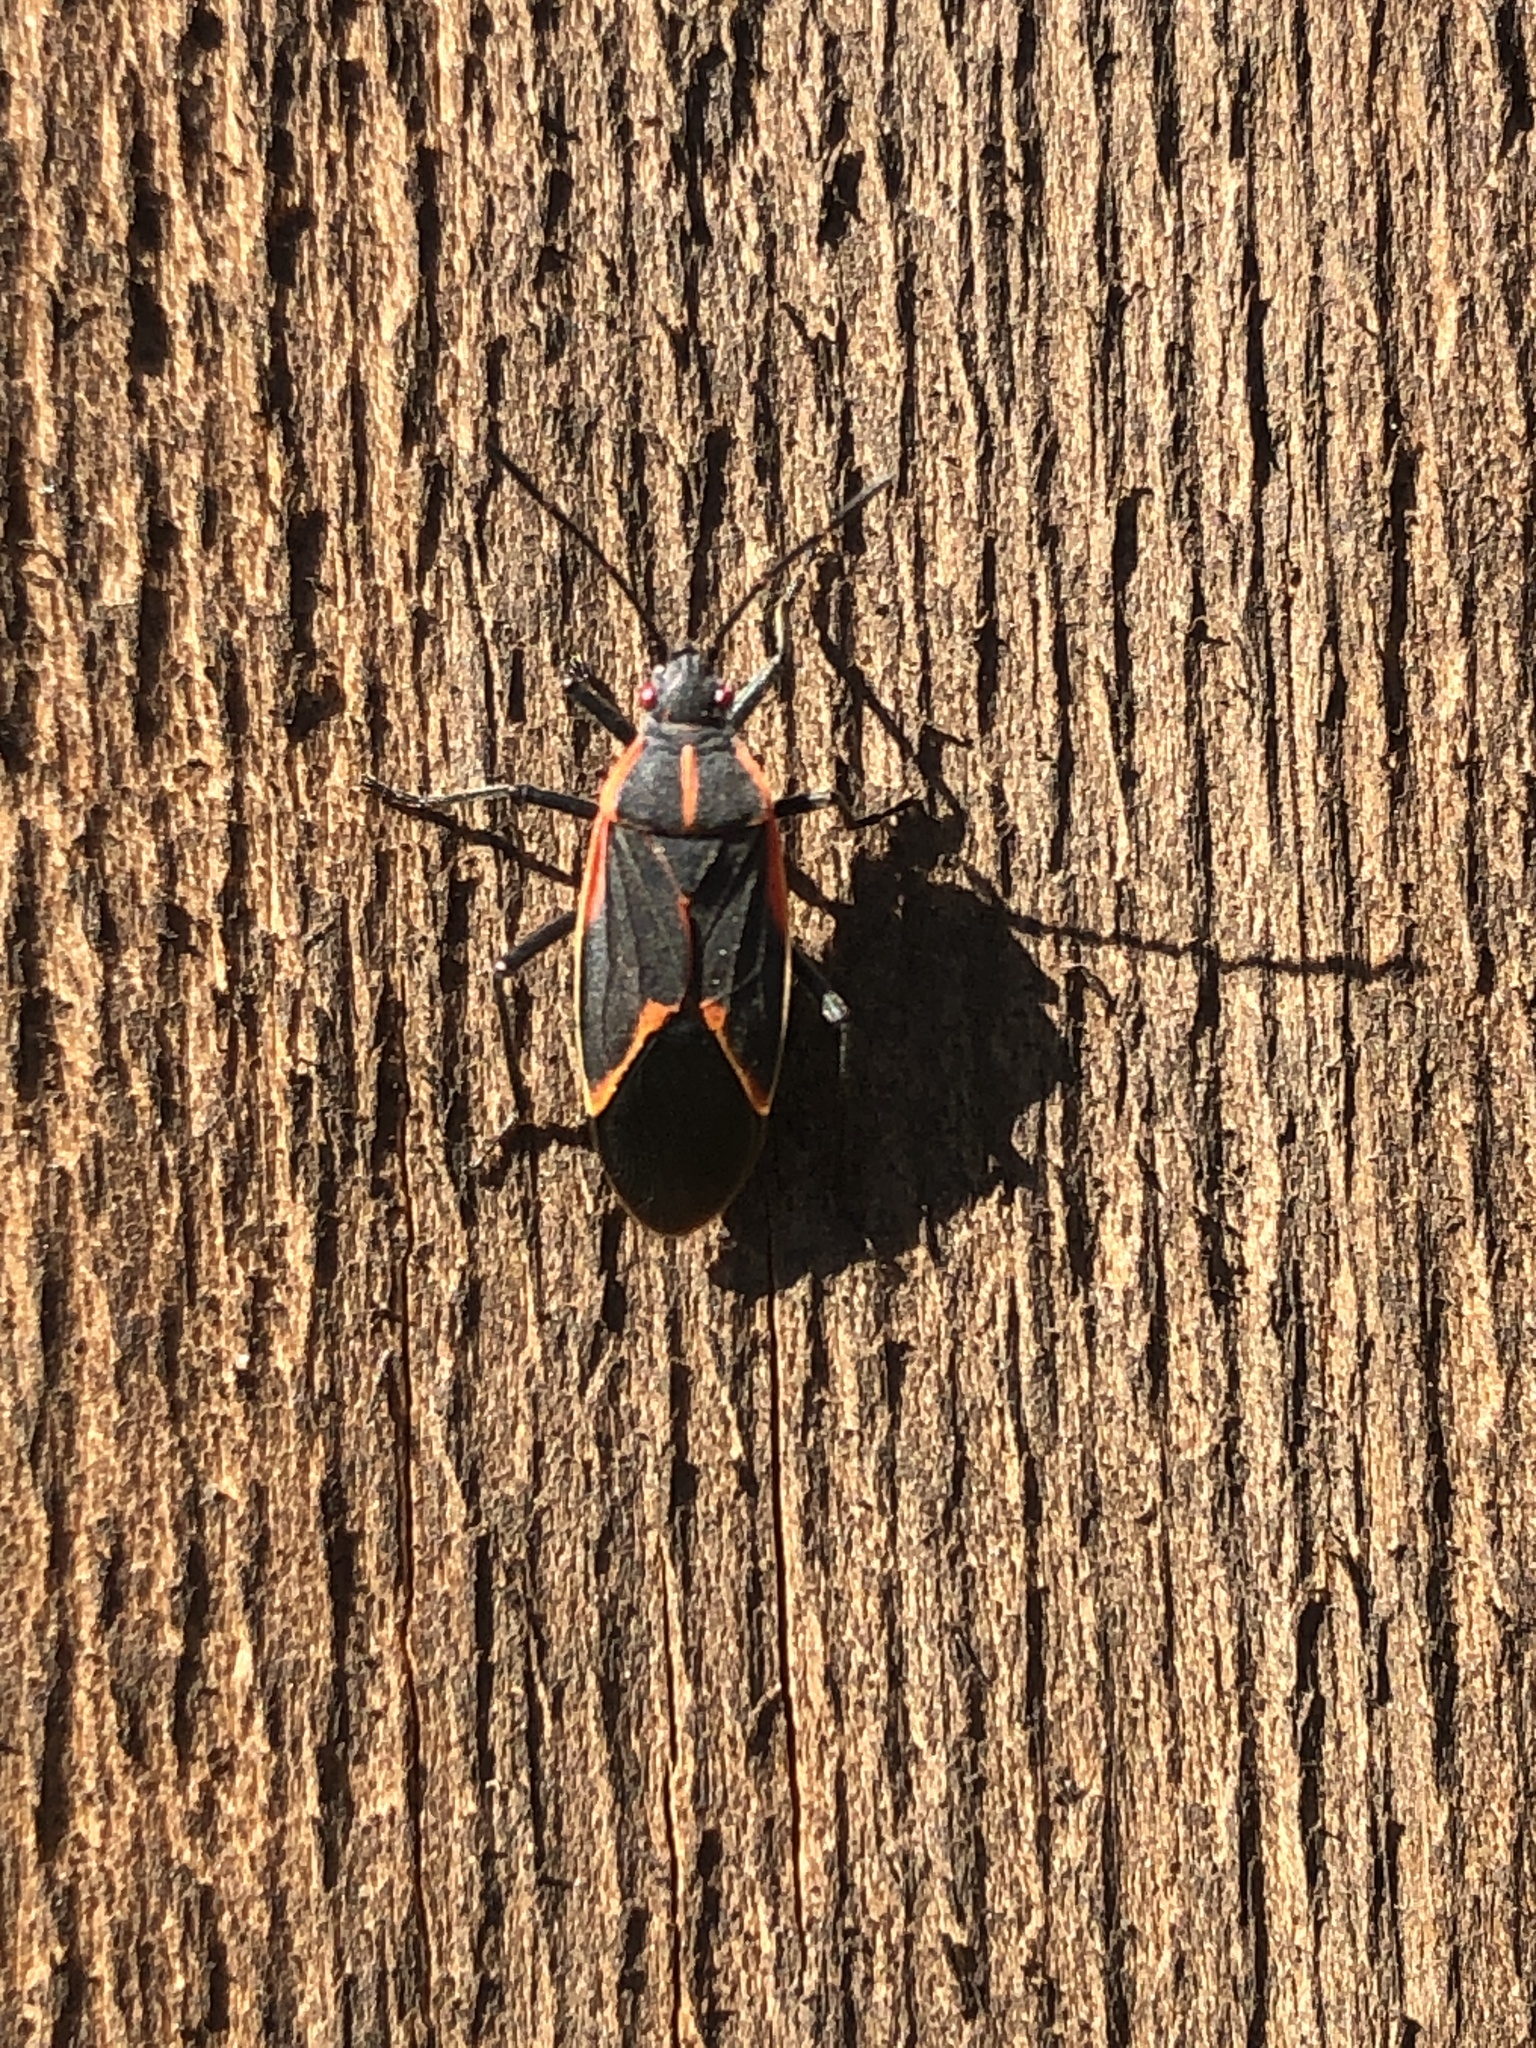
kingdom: Animalia
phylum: Arthropoda
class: Insecta
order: Hemiptera
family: Rhopalidae
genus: Boisea
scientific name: Boisea trivittata
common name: Boxelder bug
